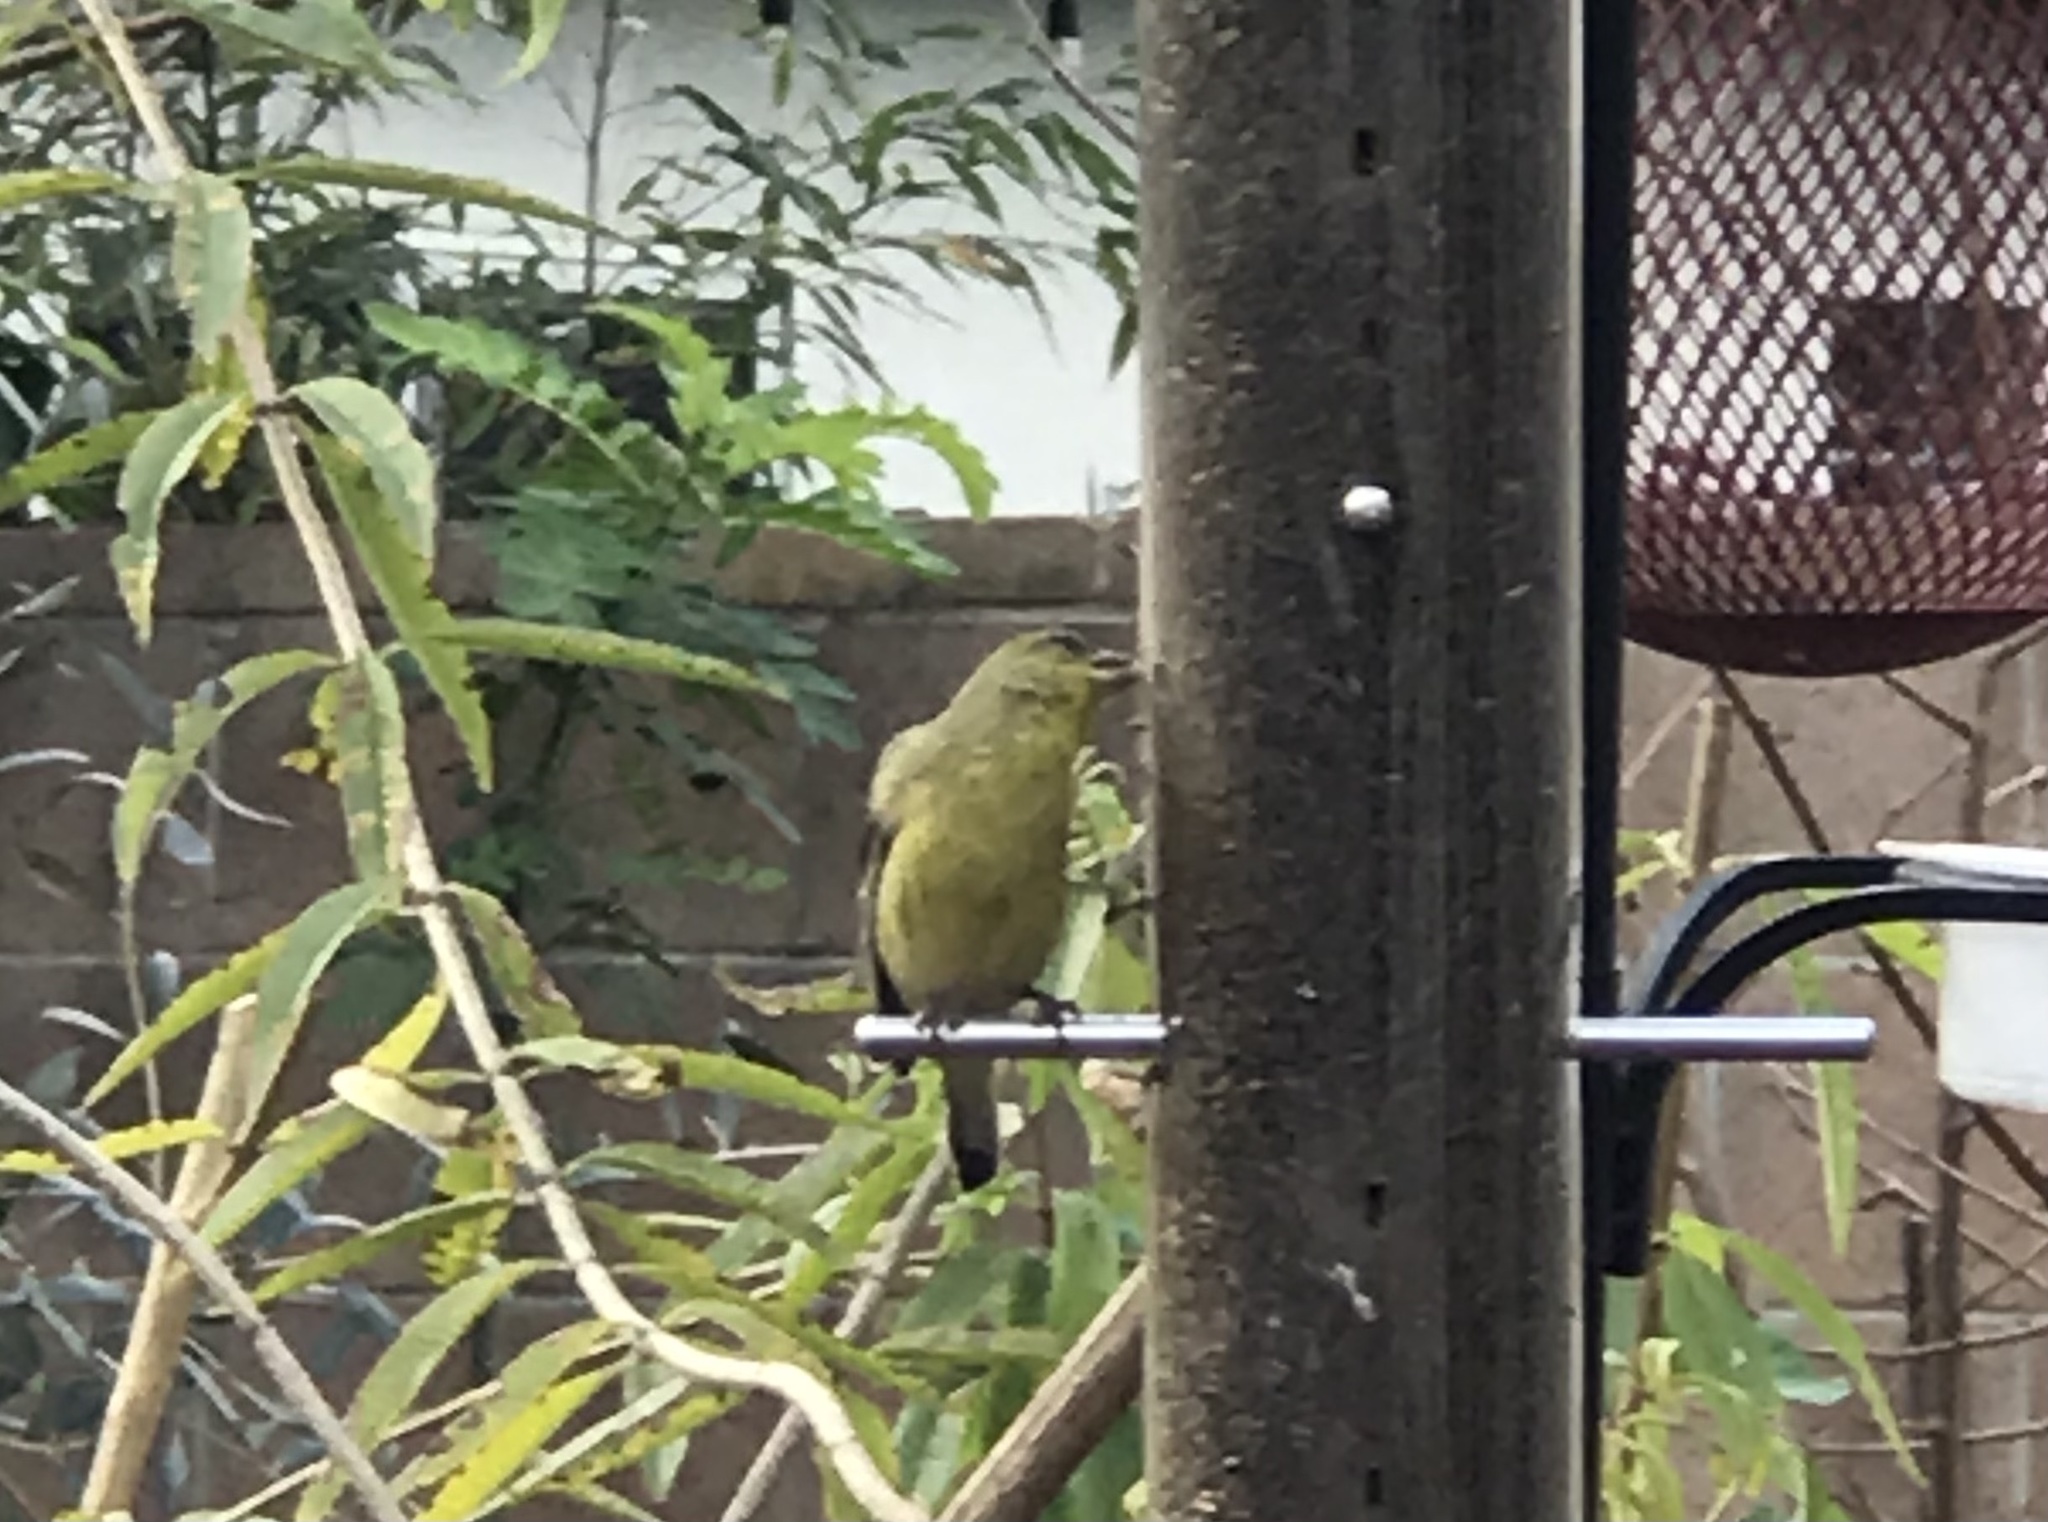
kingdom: Animalia
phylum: Chordata
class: Aves
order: Passeriformes
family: Fringillidae
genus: Spinus
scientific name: Spinus psaltria
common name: Lesser goldfinch
